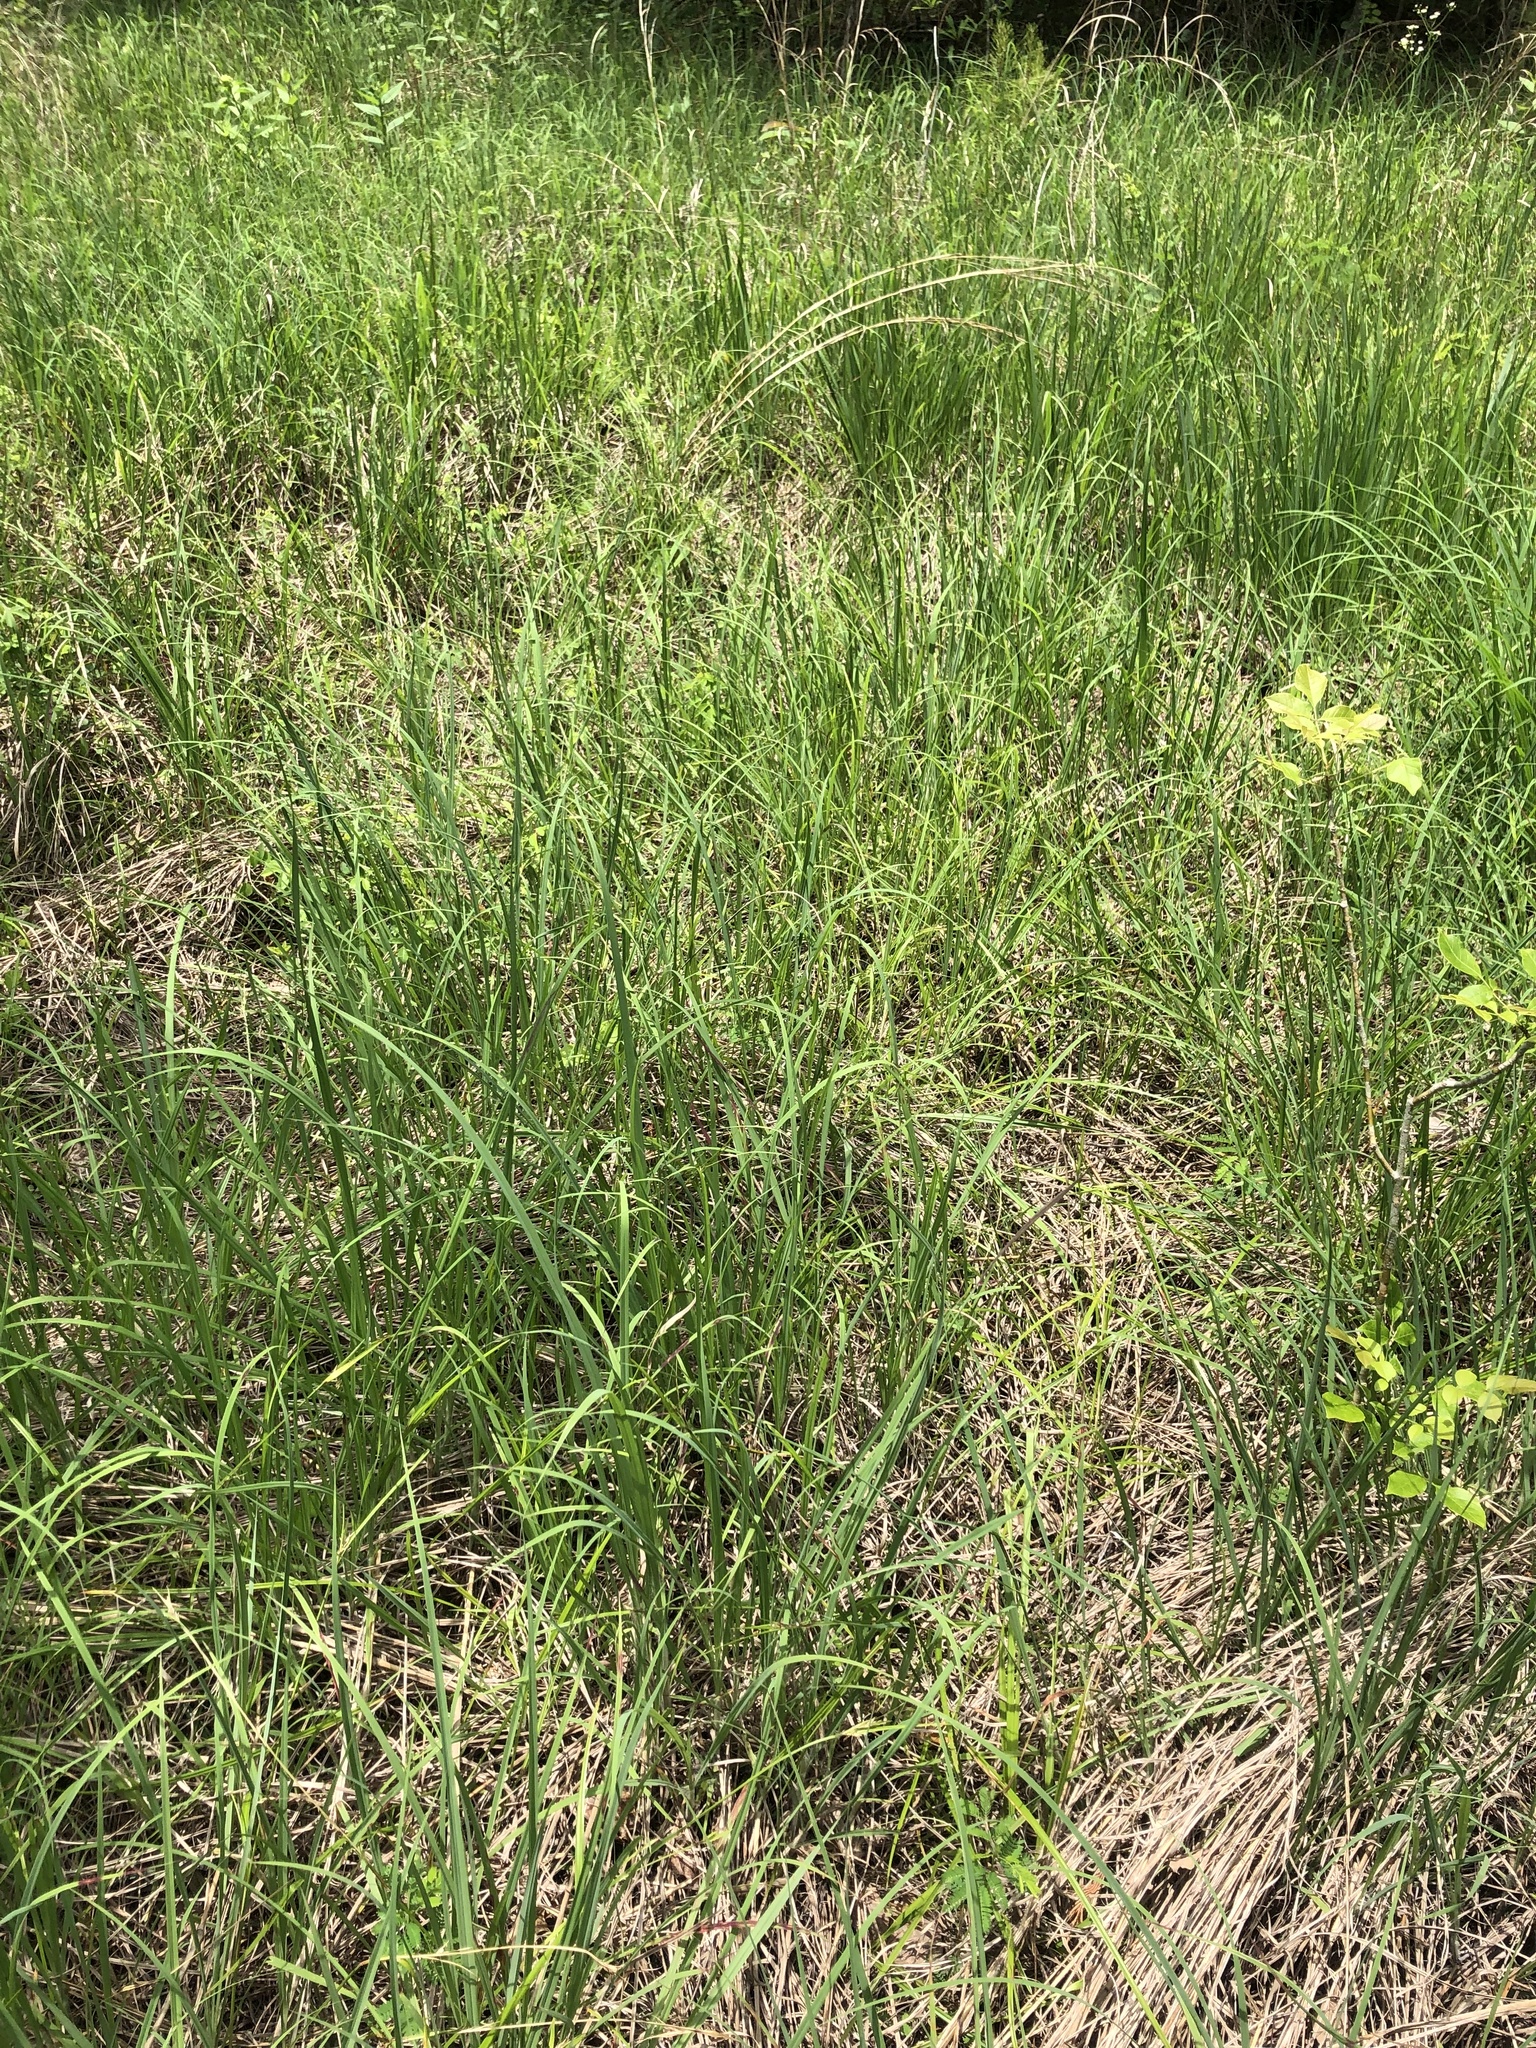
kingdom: Plantae
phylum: Tracheophyta
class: Liliopsida
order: Poales
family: Poaceae
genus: Sorghastrum
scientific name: Sorghastrum nutans
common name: Indian grass
